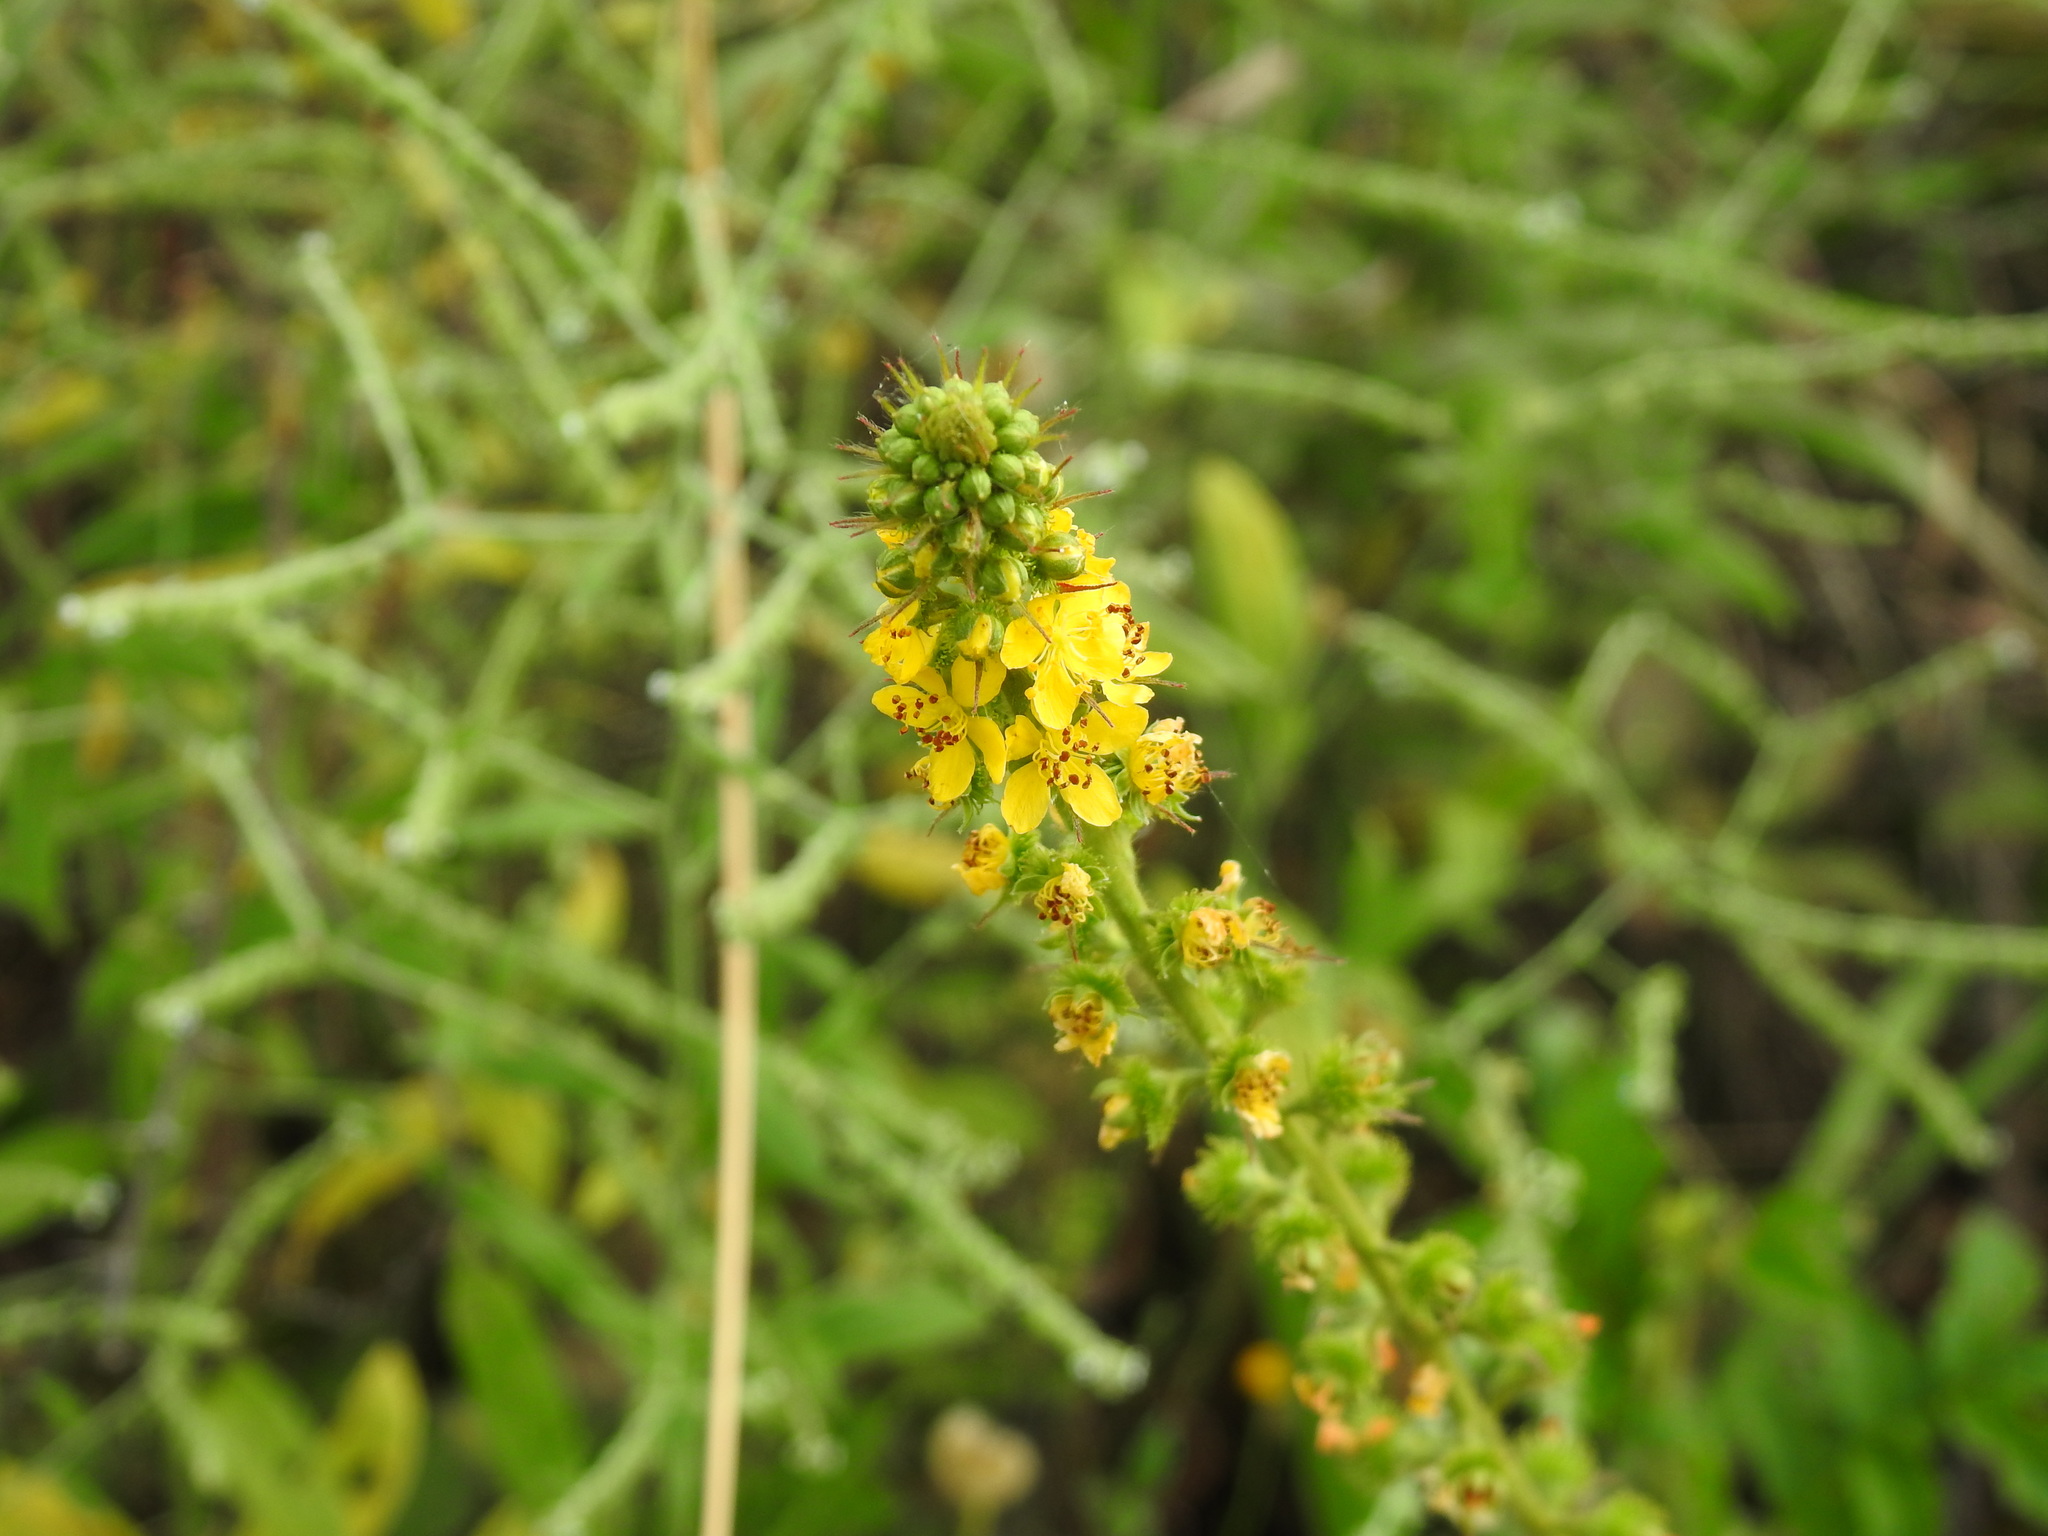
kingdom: Plantae
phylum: Tracheophyta
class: Magnoliopsida
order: Rosales
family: Rosaceae
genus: Agrimonia
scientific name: Agrimonia bracteata
